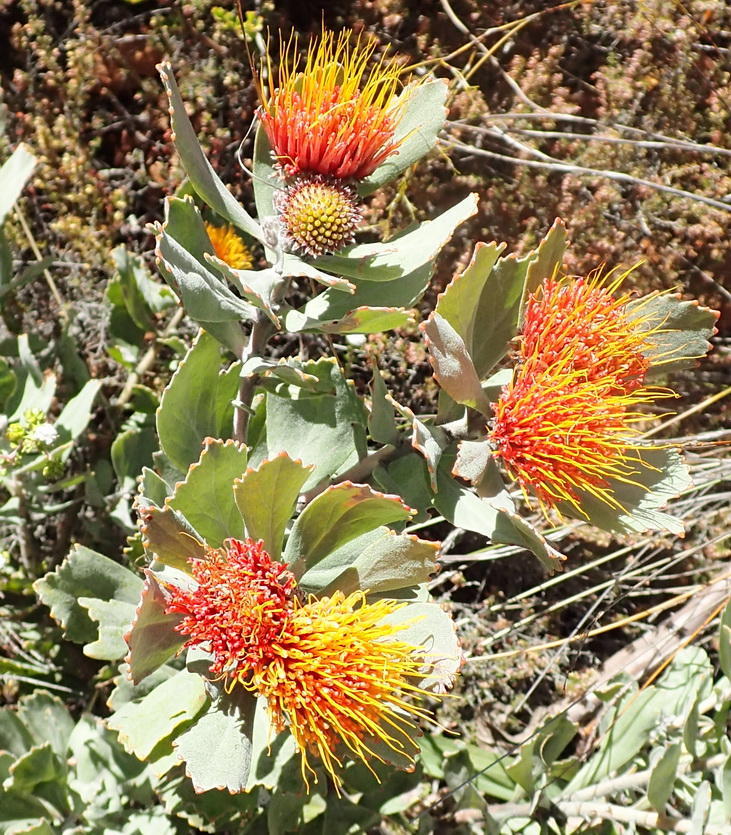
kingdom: Plantae
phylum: Tracheophyta
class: Magnoliopsida
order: Proteales
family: Proteaceae
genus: Leucospermum
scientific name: Leucospermum mundii
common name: Langeberg pincushion
